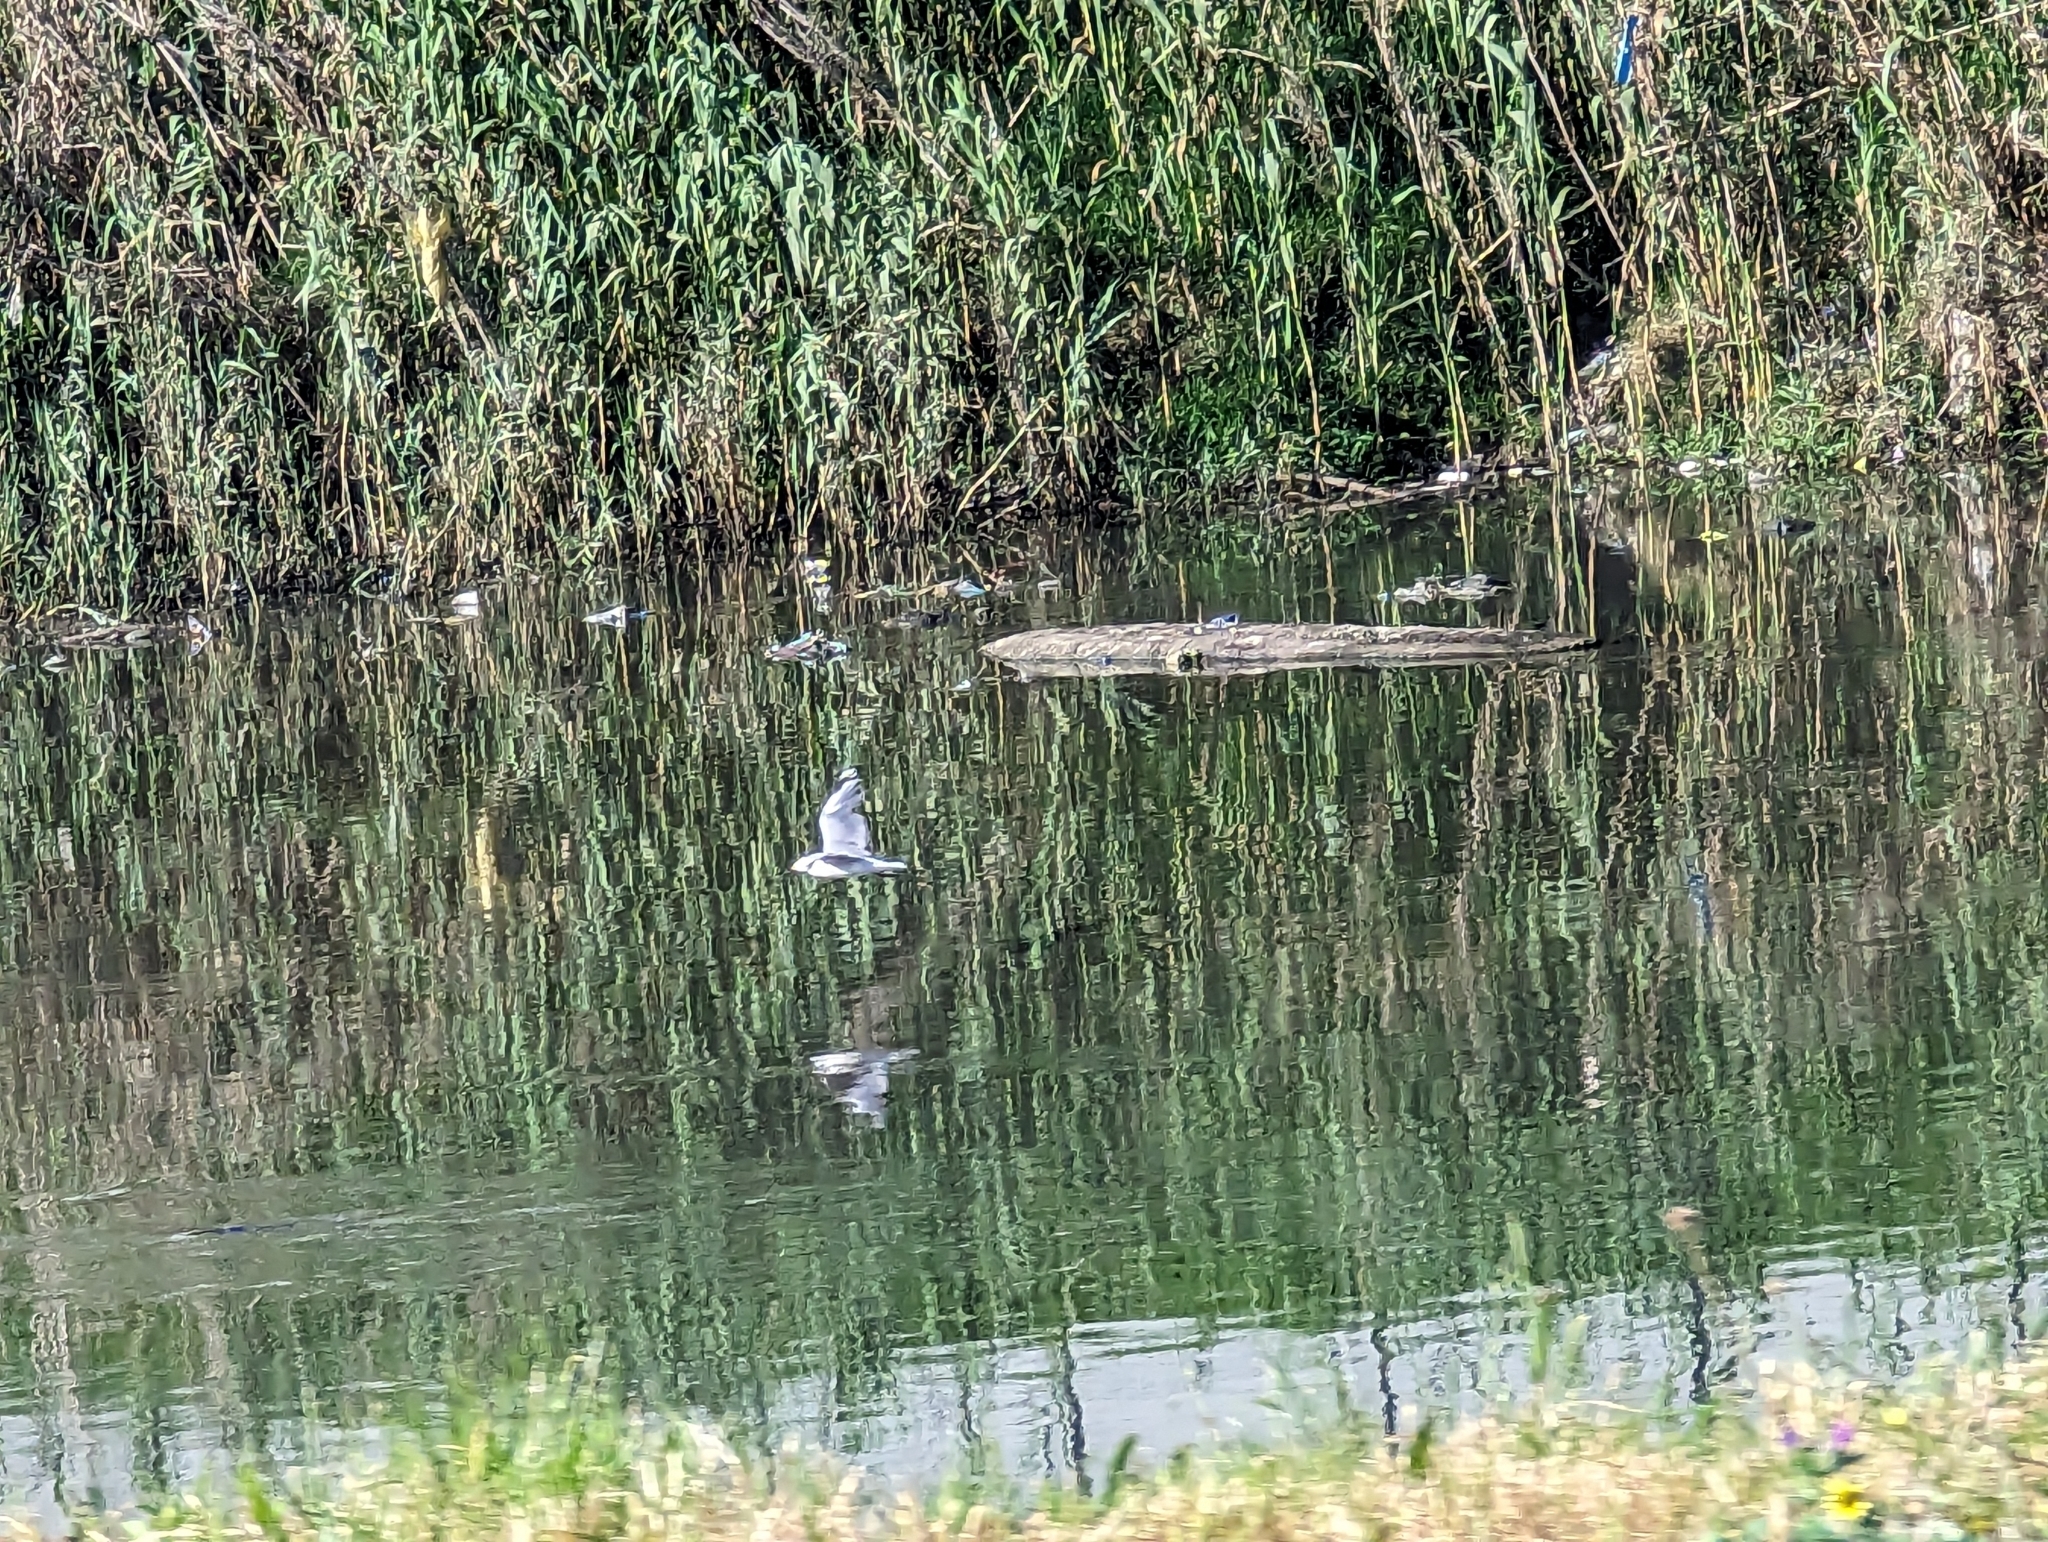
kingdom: Animalia
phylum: Chordata
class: Aves
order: Charadriiformes
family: Laridae
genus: Chroicocephalus
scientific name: Chroicocephalus hartlaubii
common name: Hartlaub's gull
